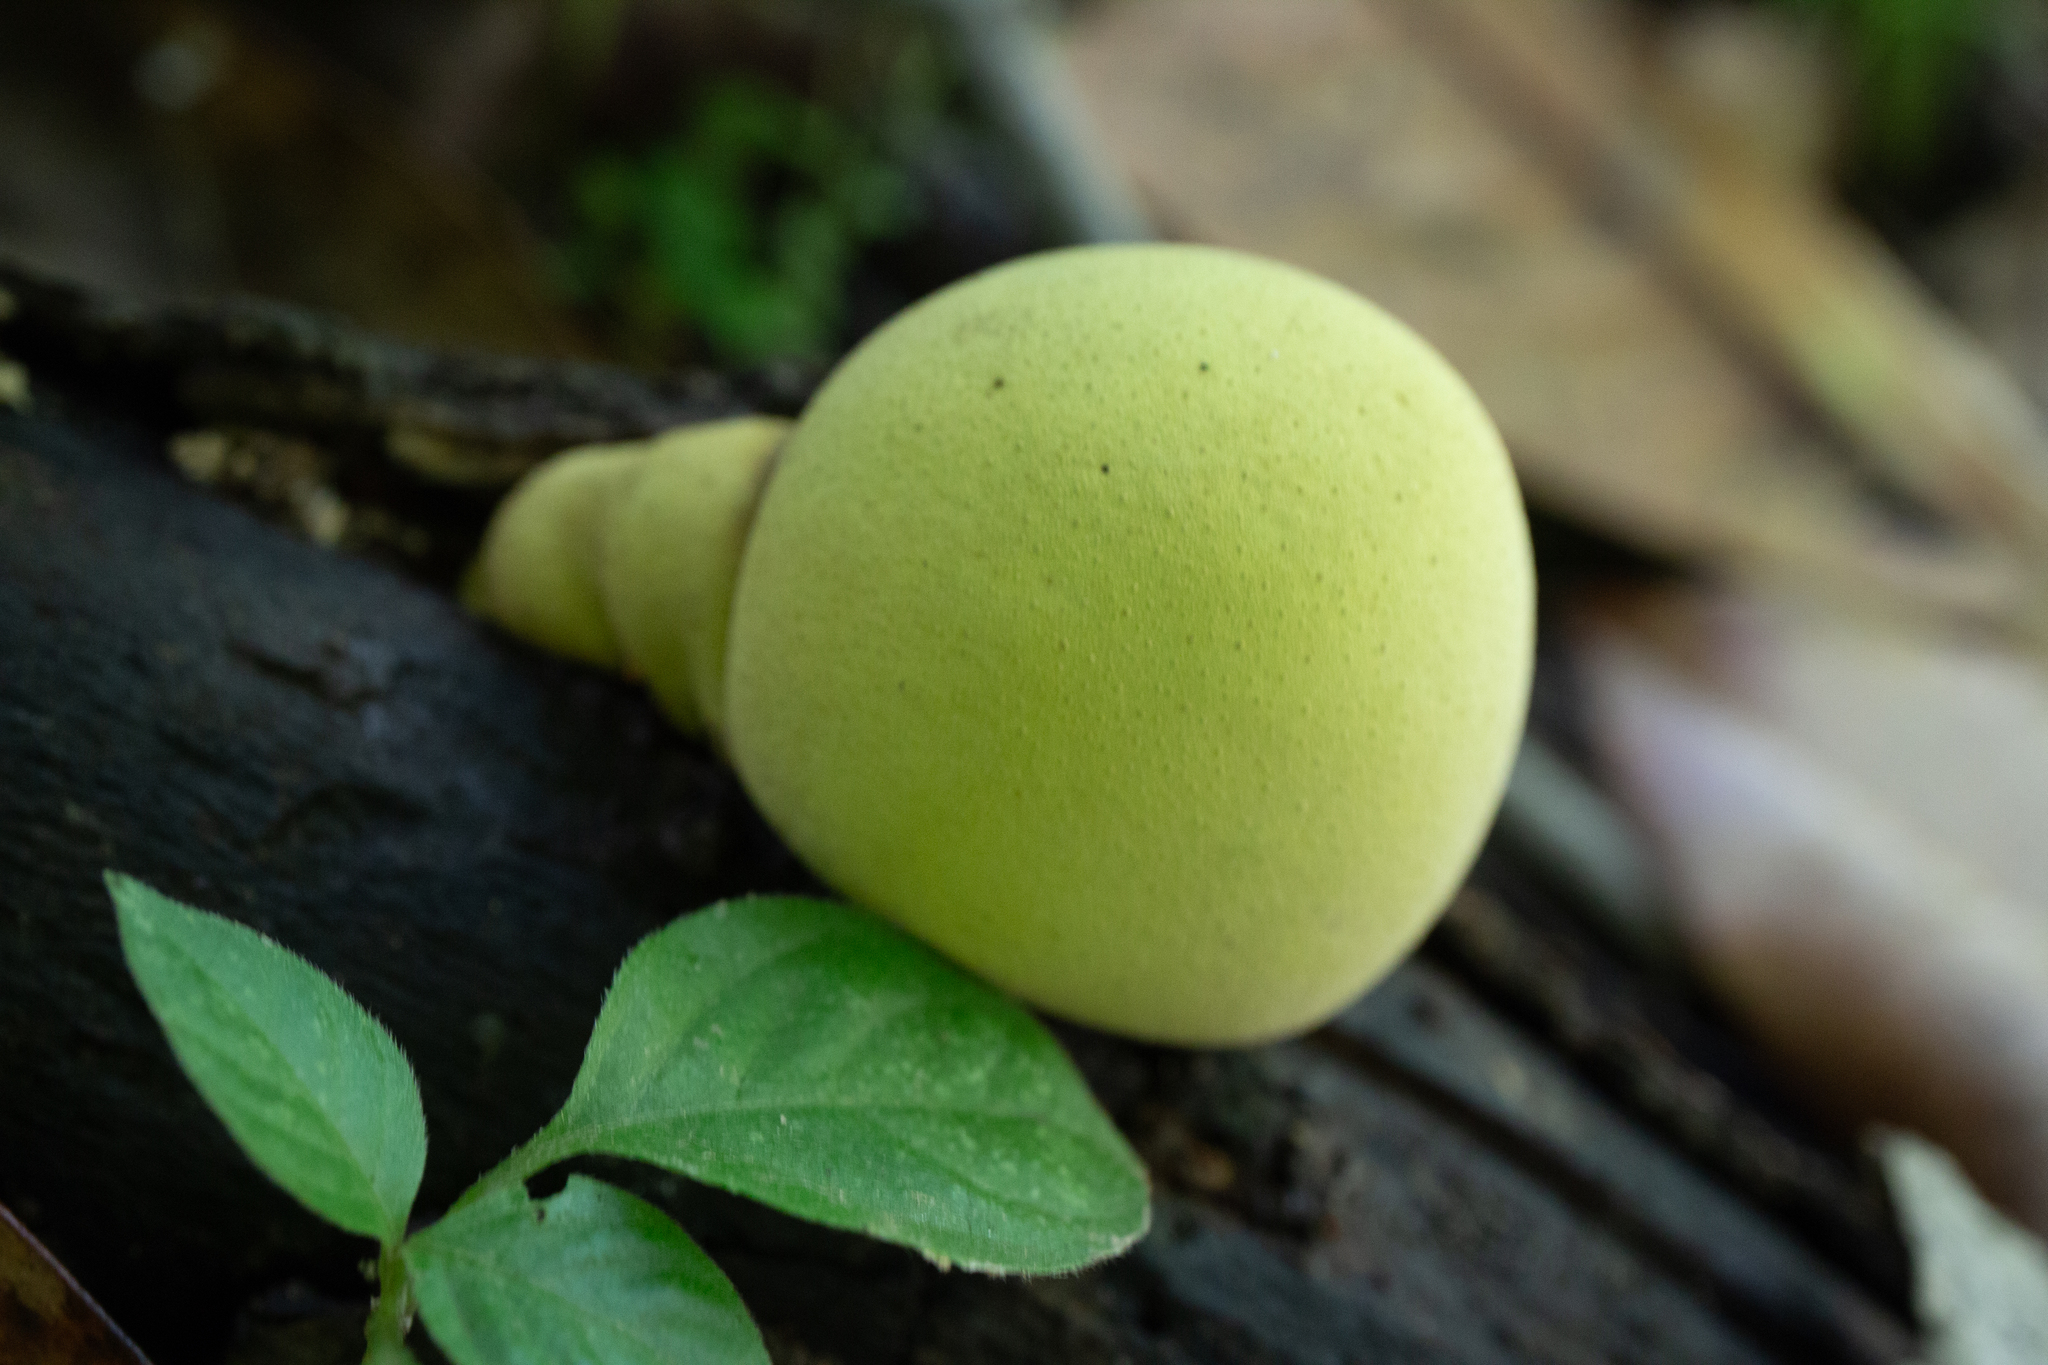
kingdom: Fungi
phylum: Ascomycota
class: Sordariomycetes
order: Xylariales
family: Hypoxylaceae
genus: Entonaema
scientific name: Entonaema liquescens
